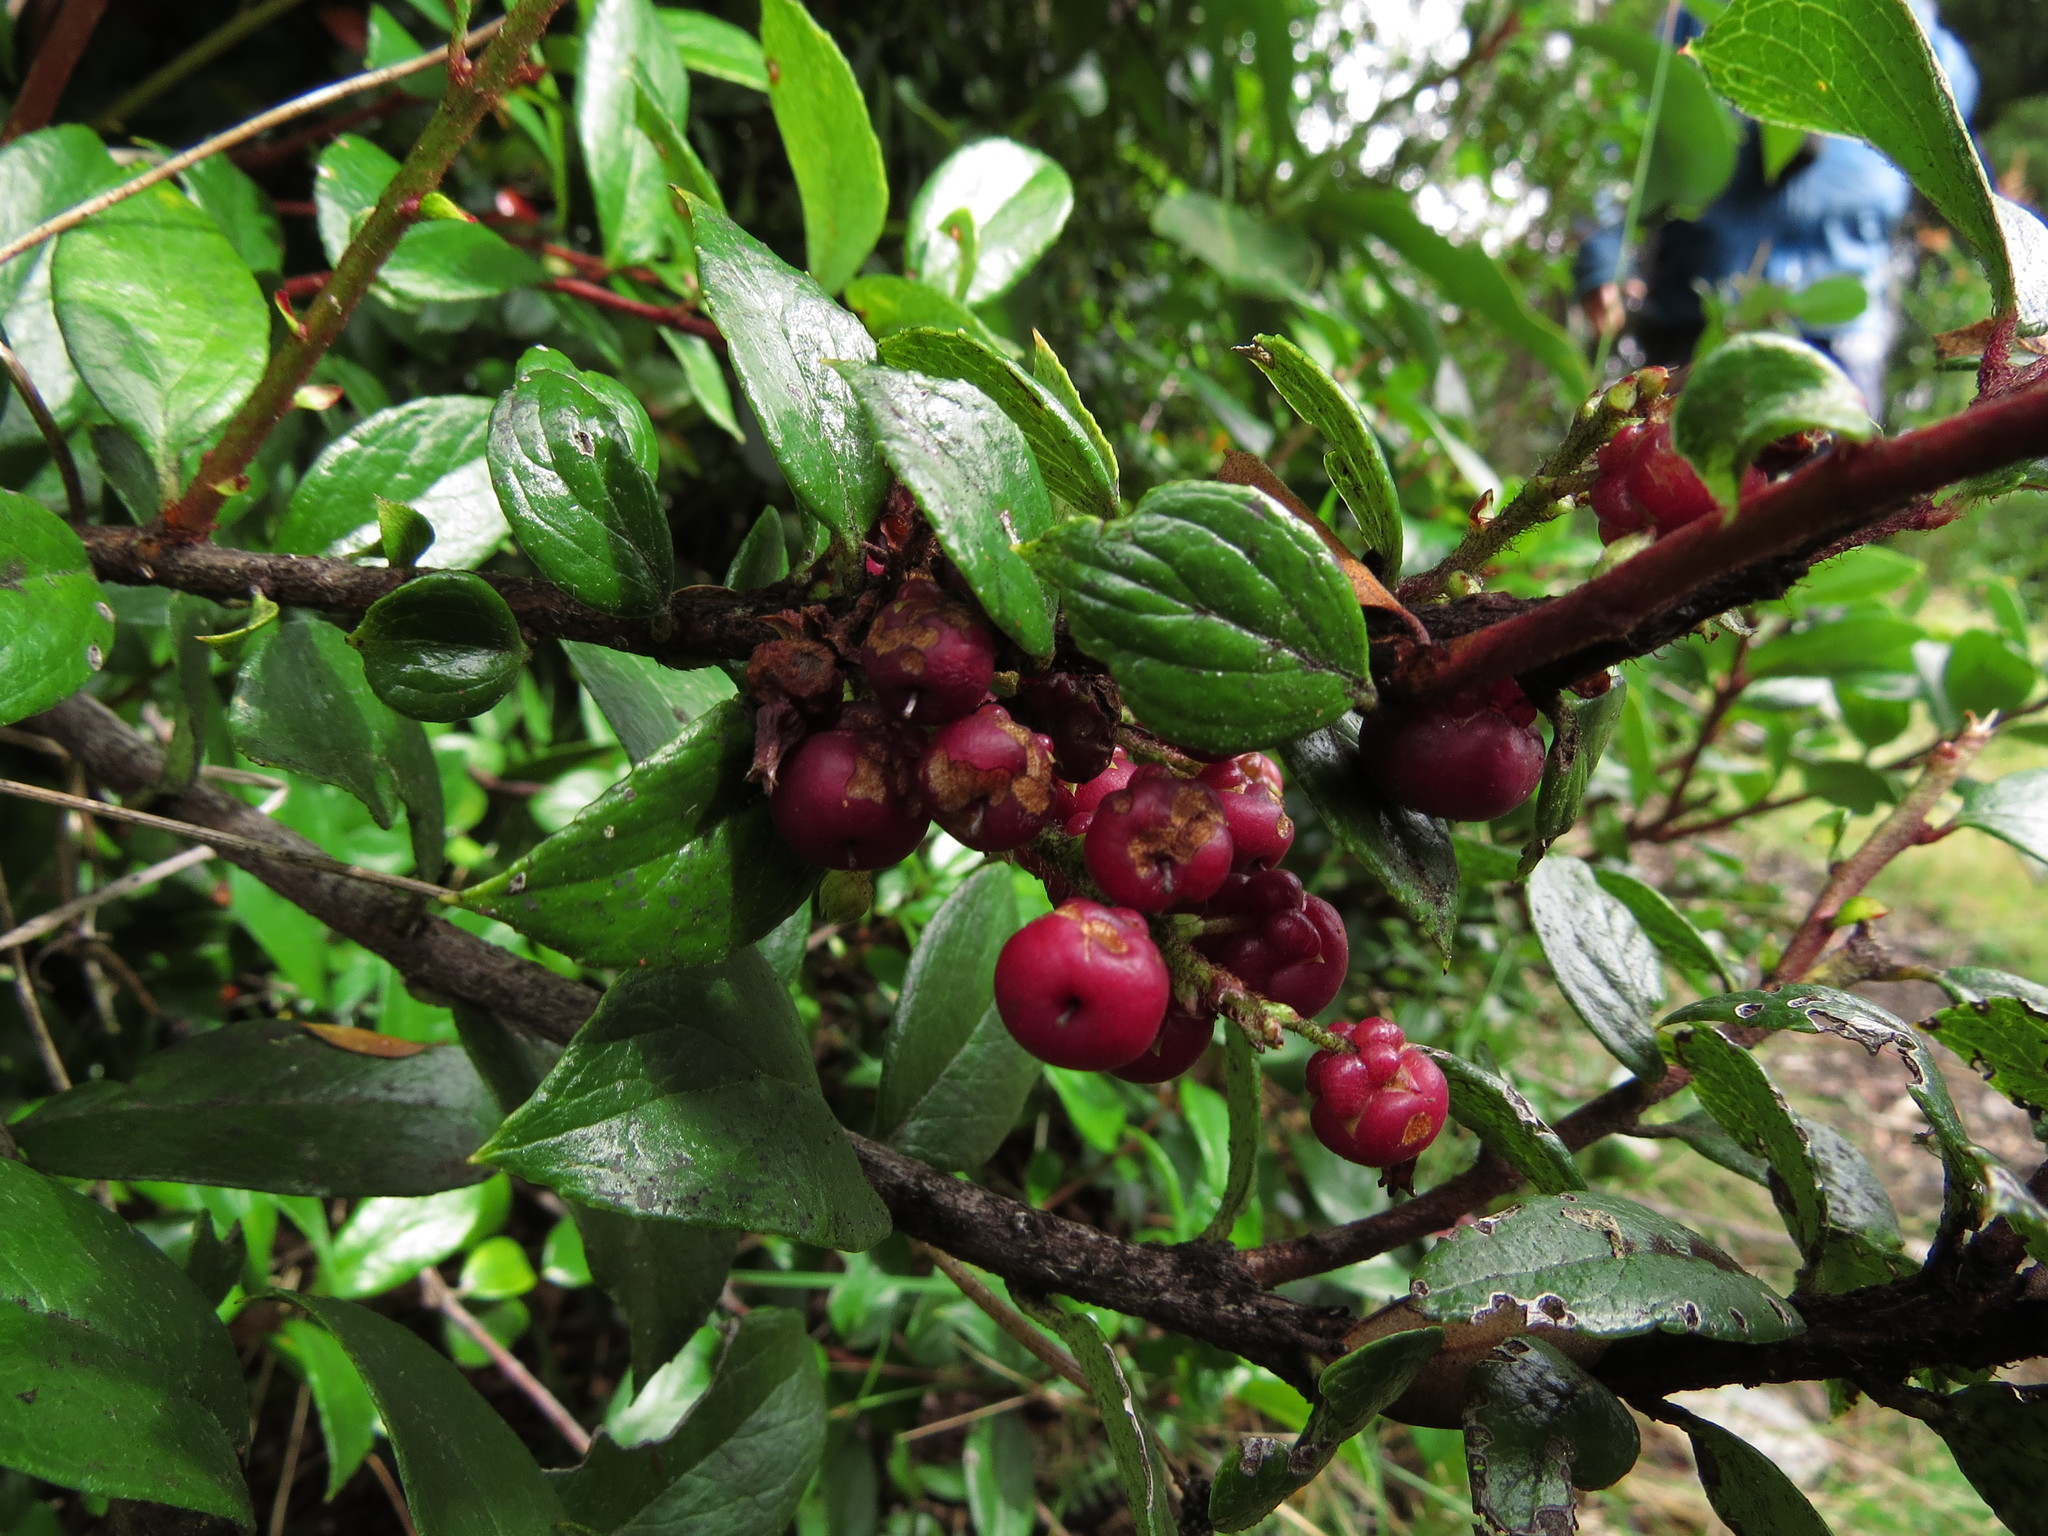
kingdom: Plantae
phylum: Tracheophyta
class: Magnoliopsida
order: Ericales
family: Ericaceae
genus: Gaultheria
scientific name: Gaultheria insana
